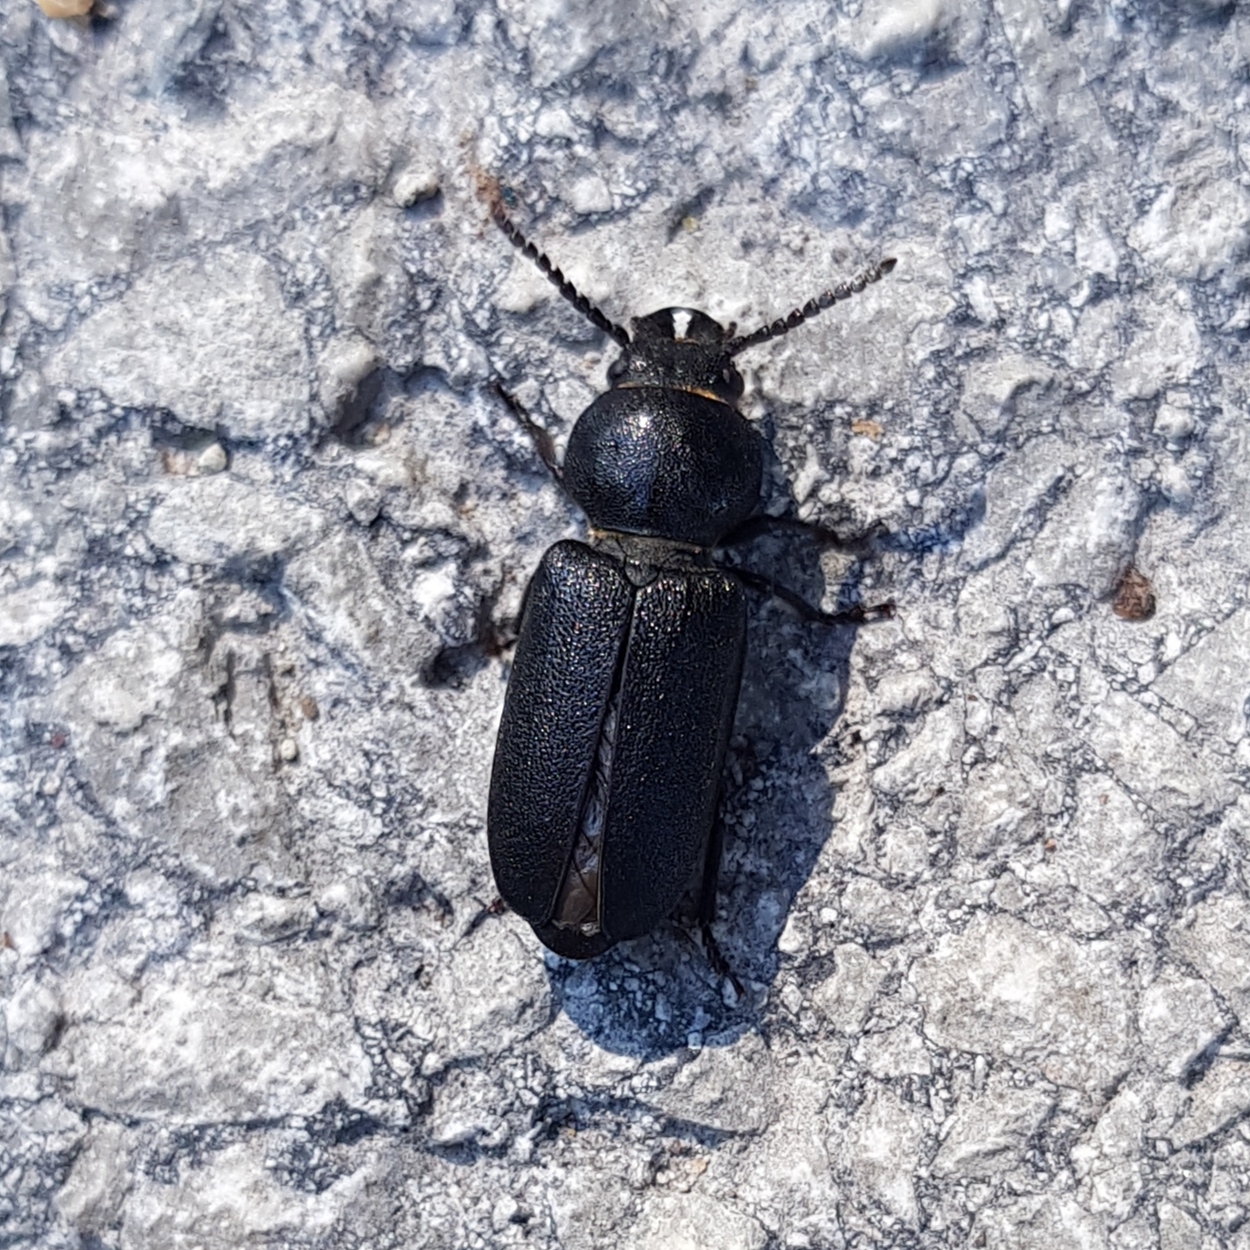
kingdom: Animalia
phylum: Arthropoda
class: Insecta
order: Coleoptera
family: Cerambycidae
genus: Spondylis
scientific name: Spondylis buprestoides
